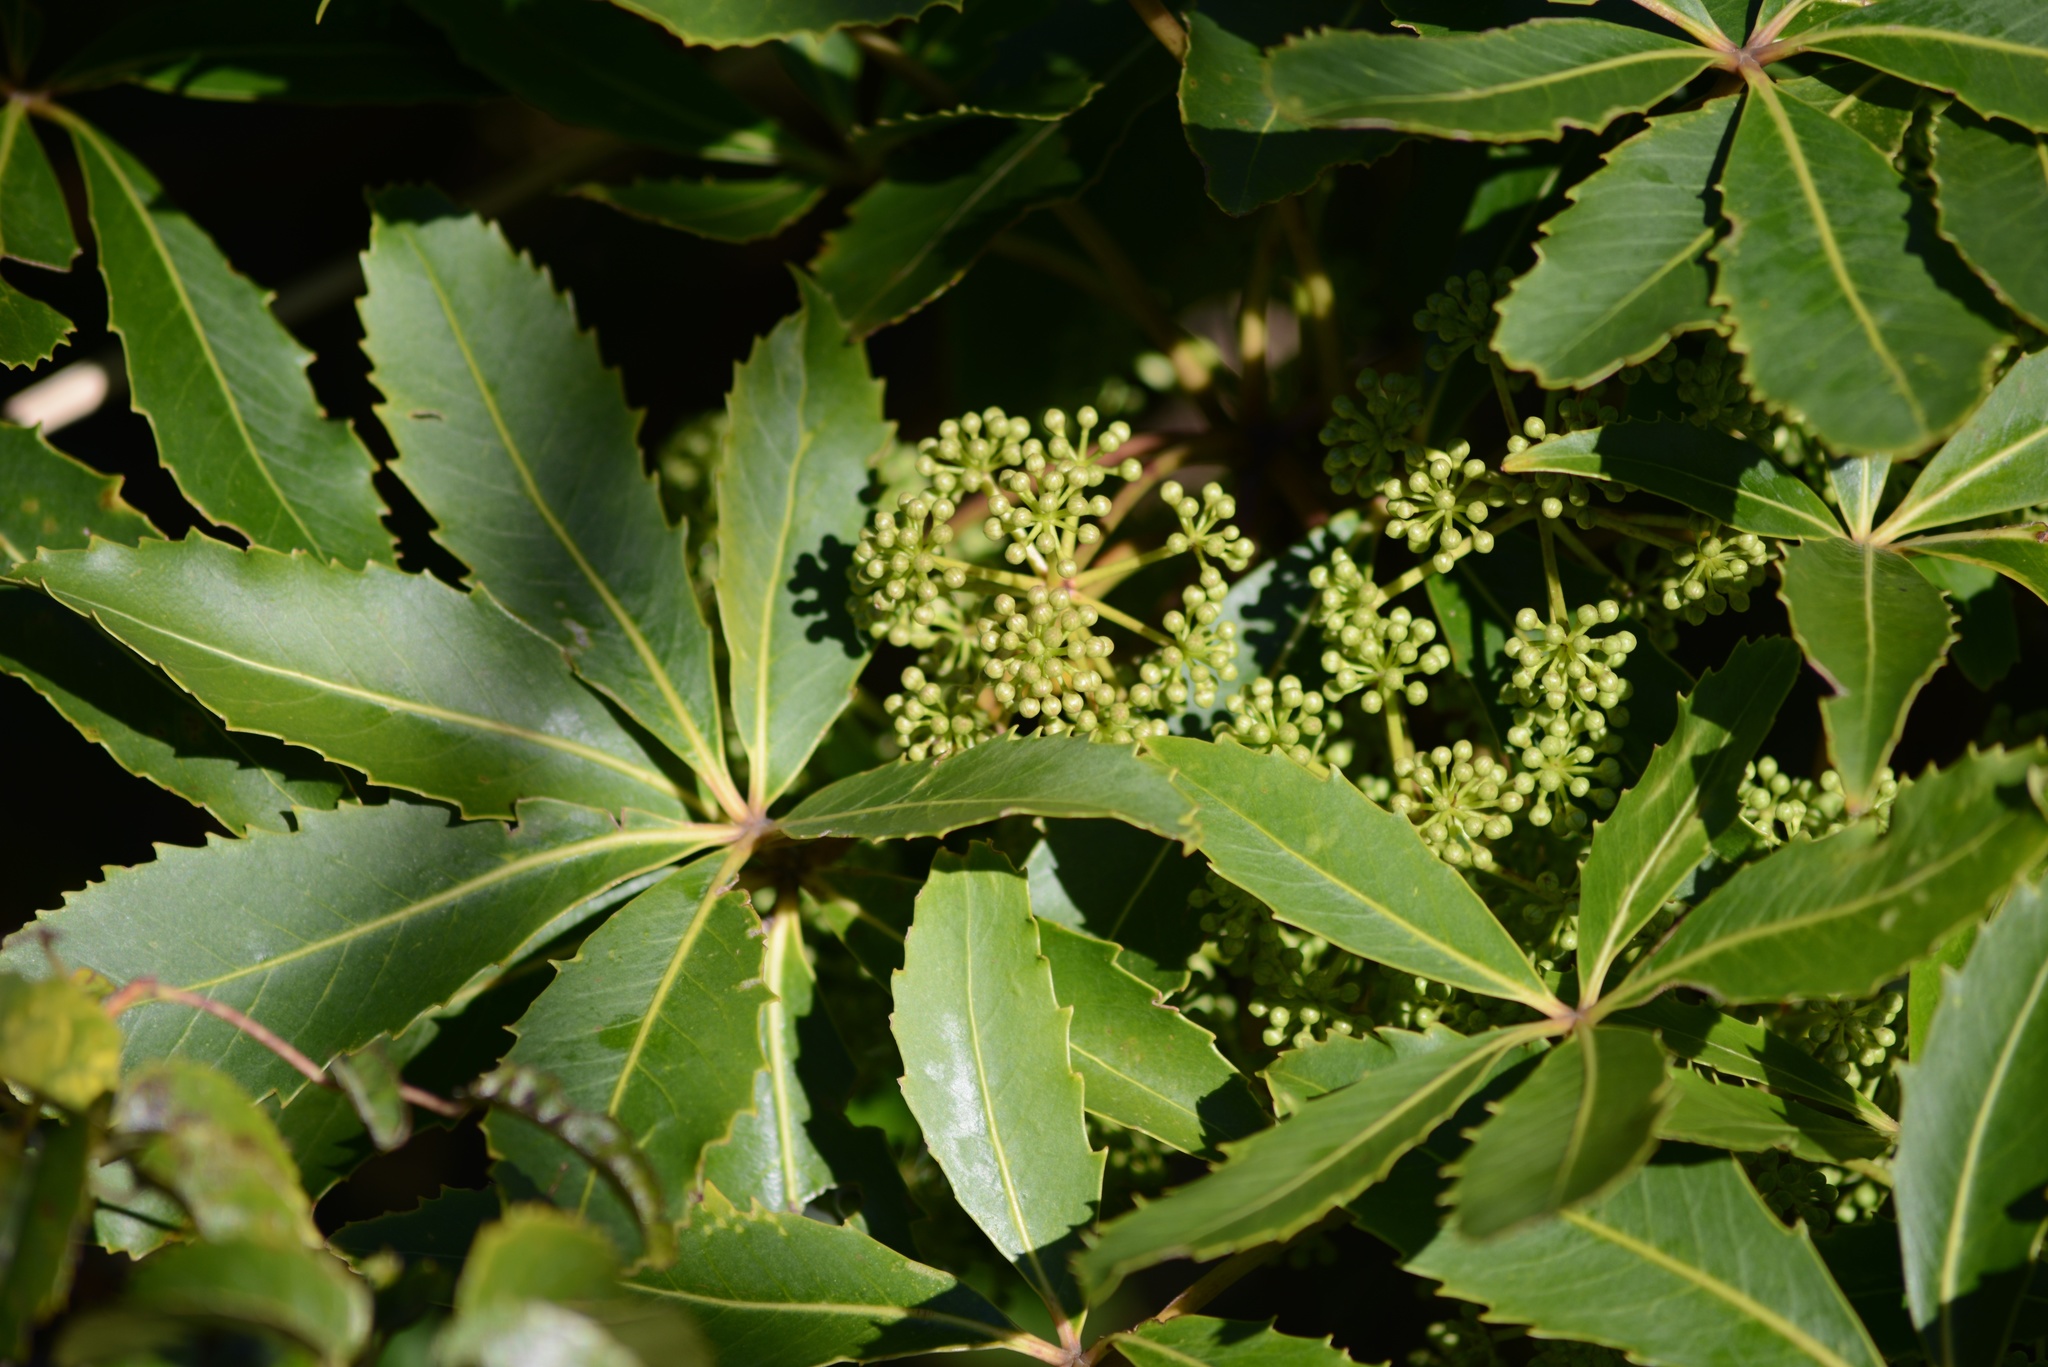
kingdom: Plantae
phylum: Tracheophyta
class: Magnoliopsida
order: Apiales
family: Araliaceae
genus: Neopanax
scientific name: Neopanax colensoi
